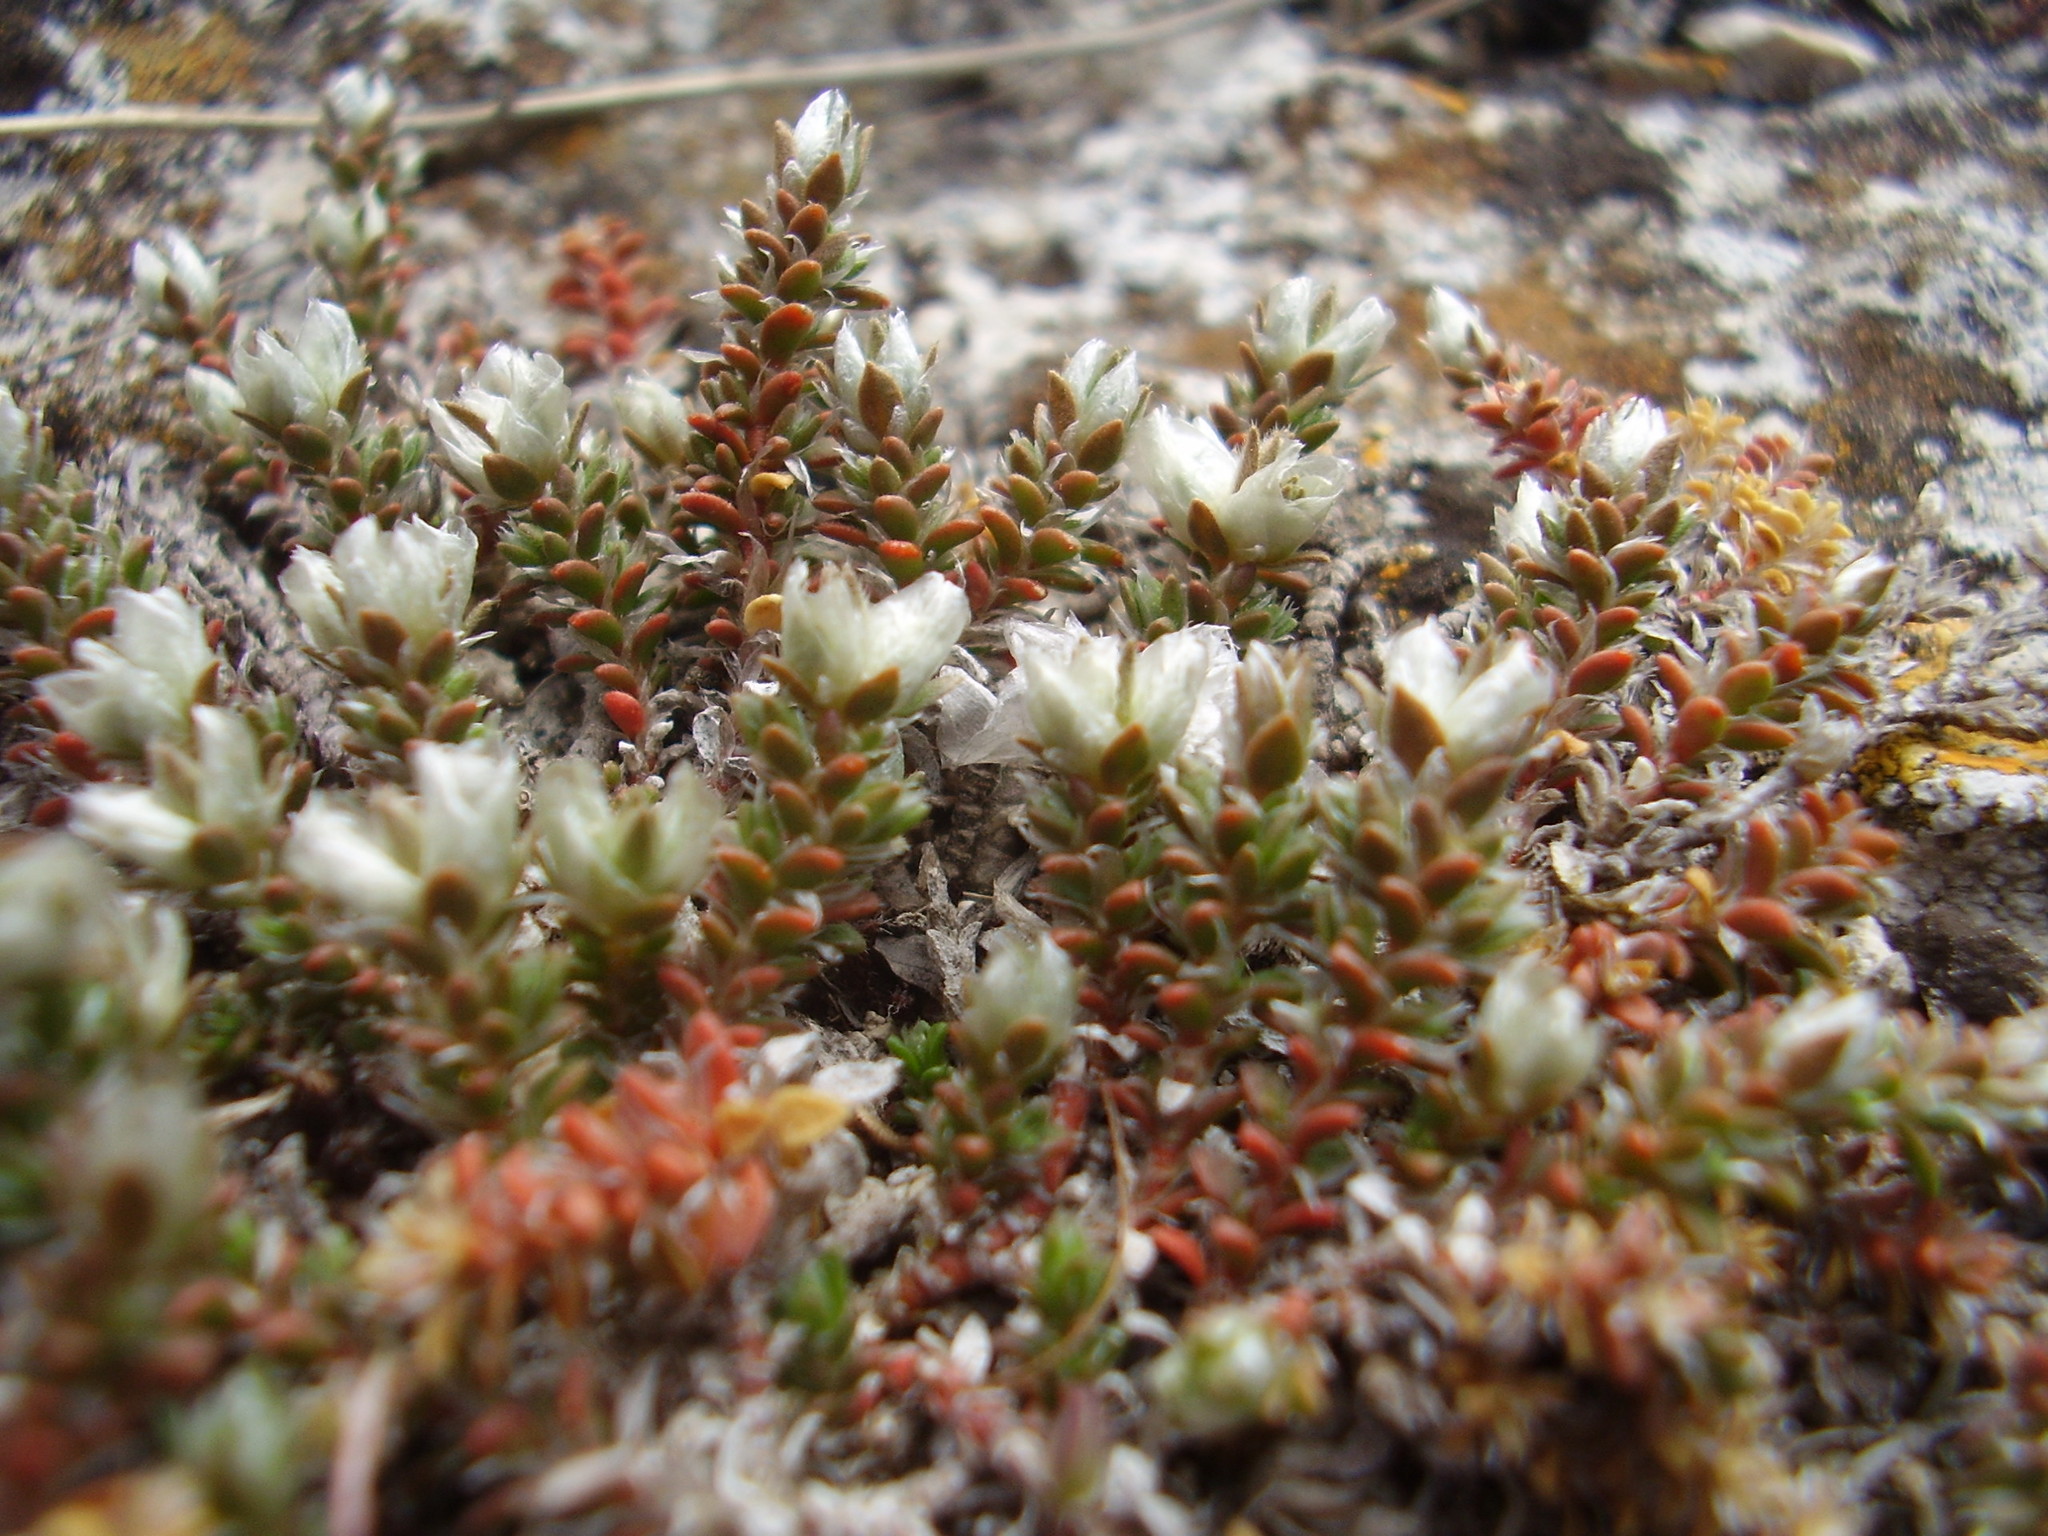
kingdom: Plantae
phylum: Tracheophyta
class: Magnoliopsida
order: Caryophyllales
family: Caryophyllaceae
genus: Paronychia
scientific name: Paronychia cephalotes
